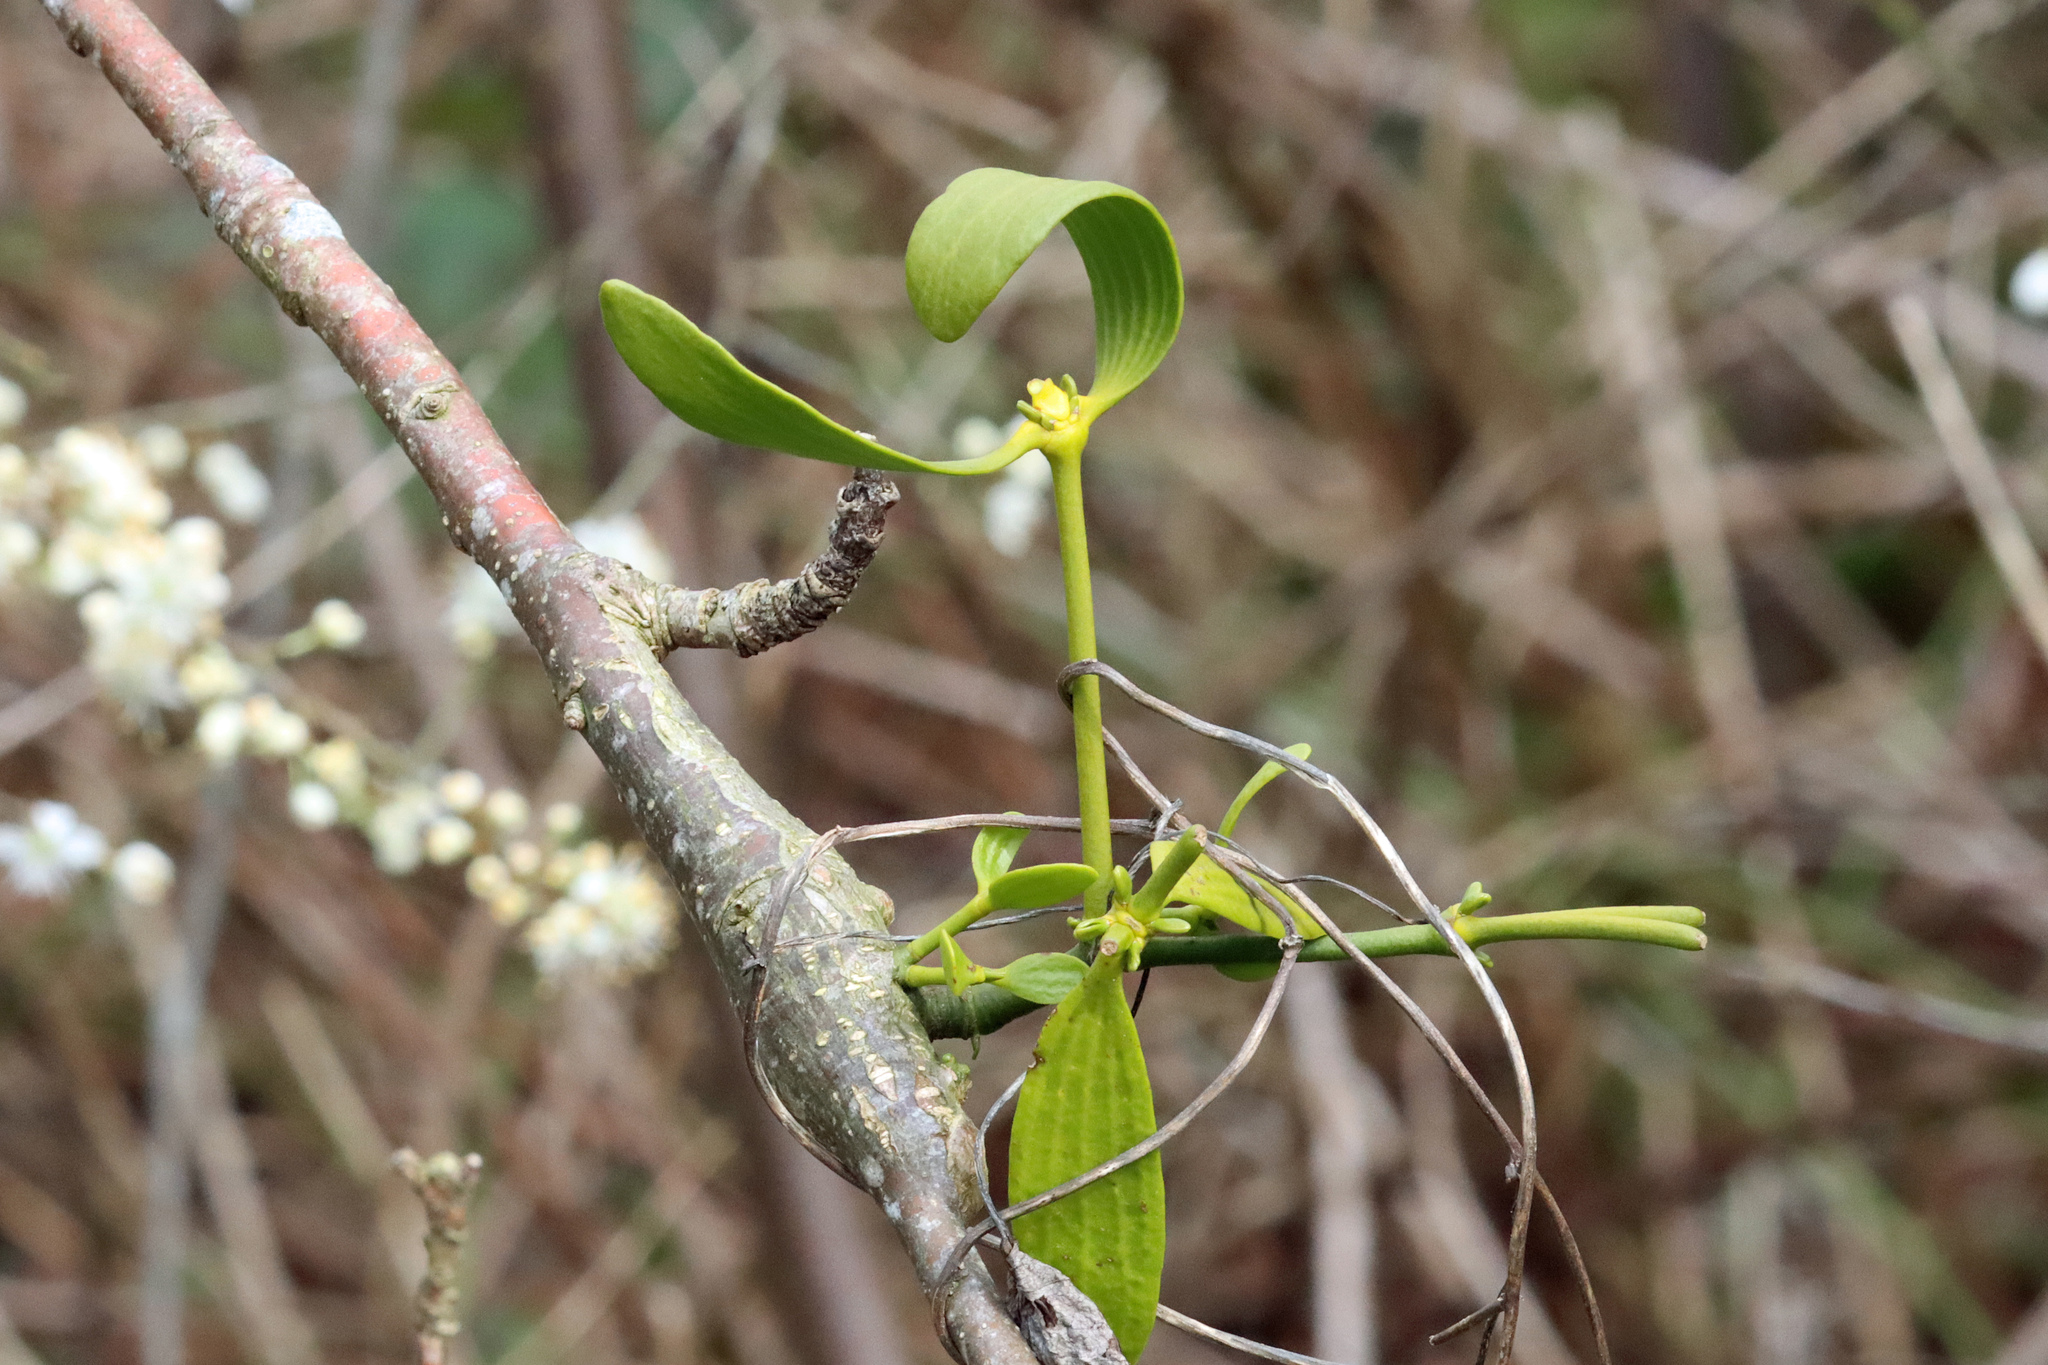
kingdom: Plantae
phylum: Tracheophyta
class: Magnoliopsida
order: Santalales
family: Viscaceae
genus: Viscum
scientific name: Viscum album
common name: Mistletoe
